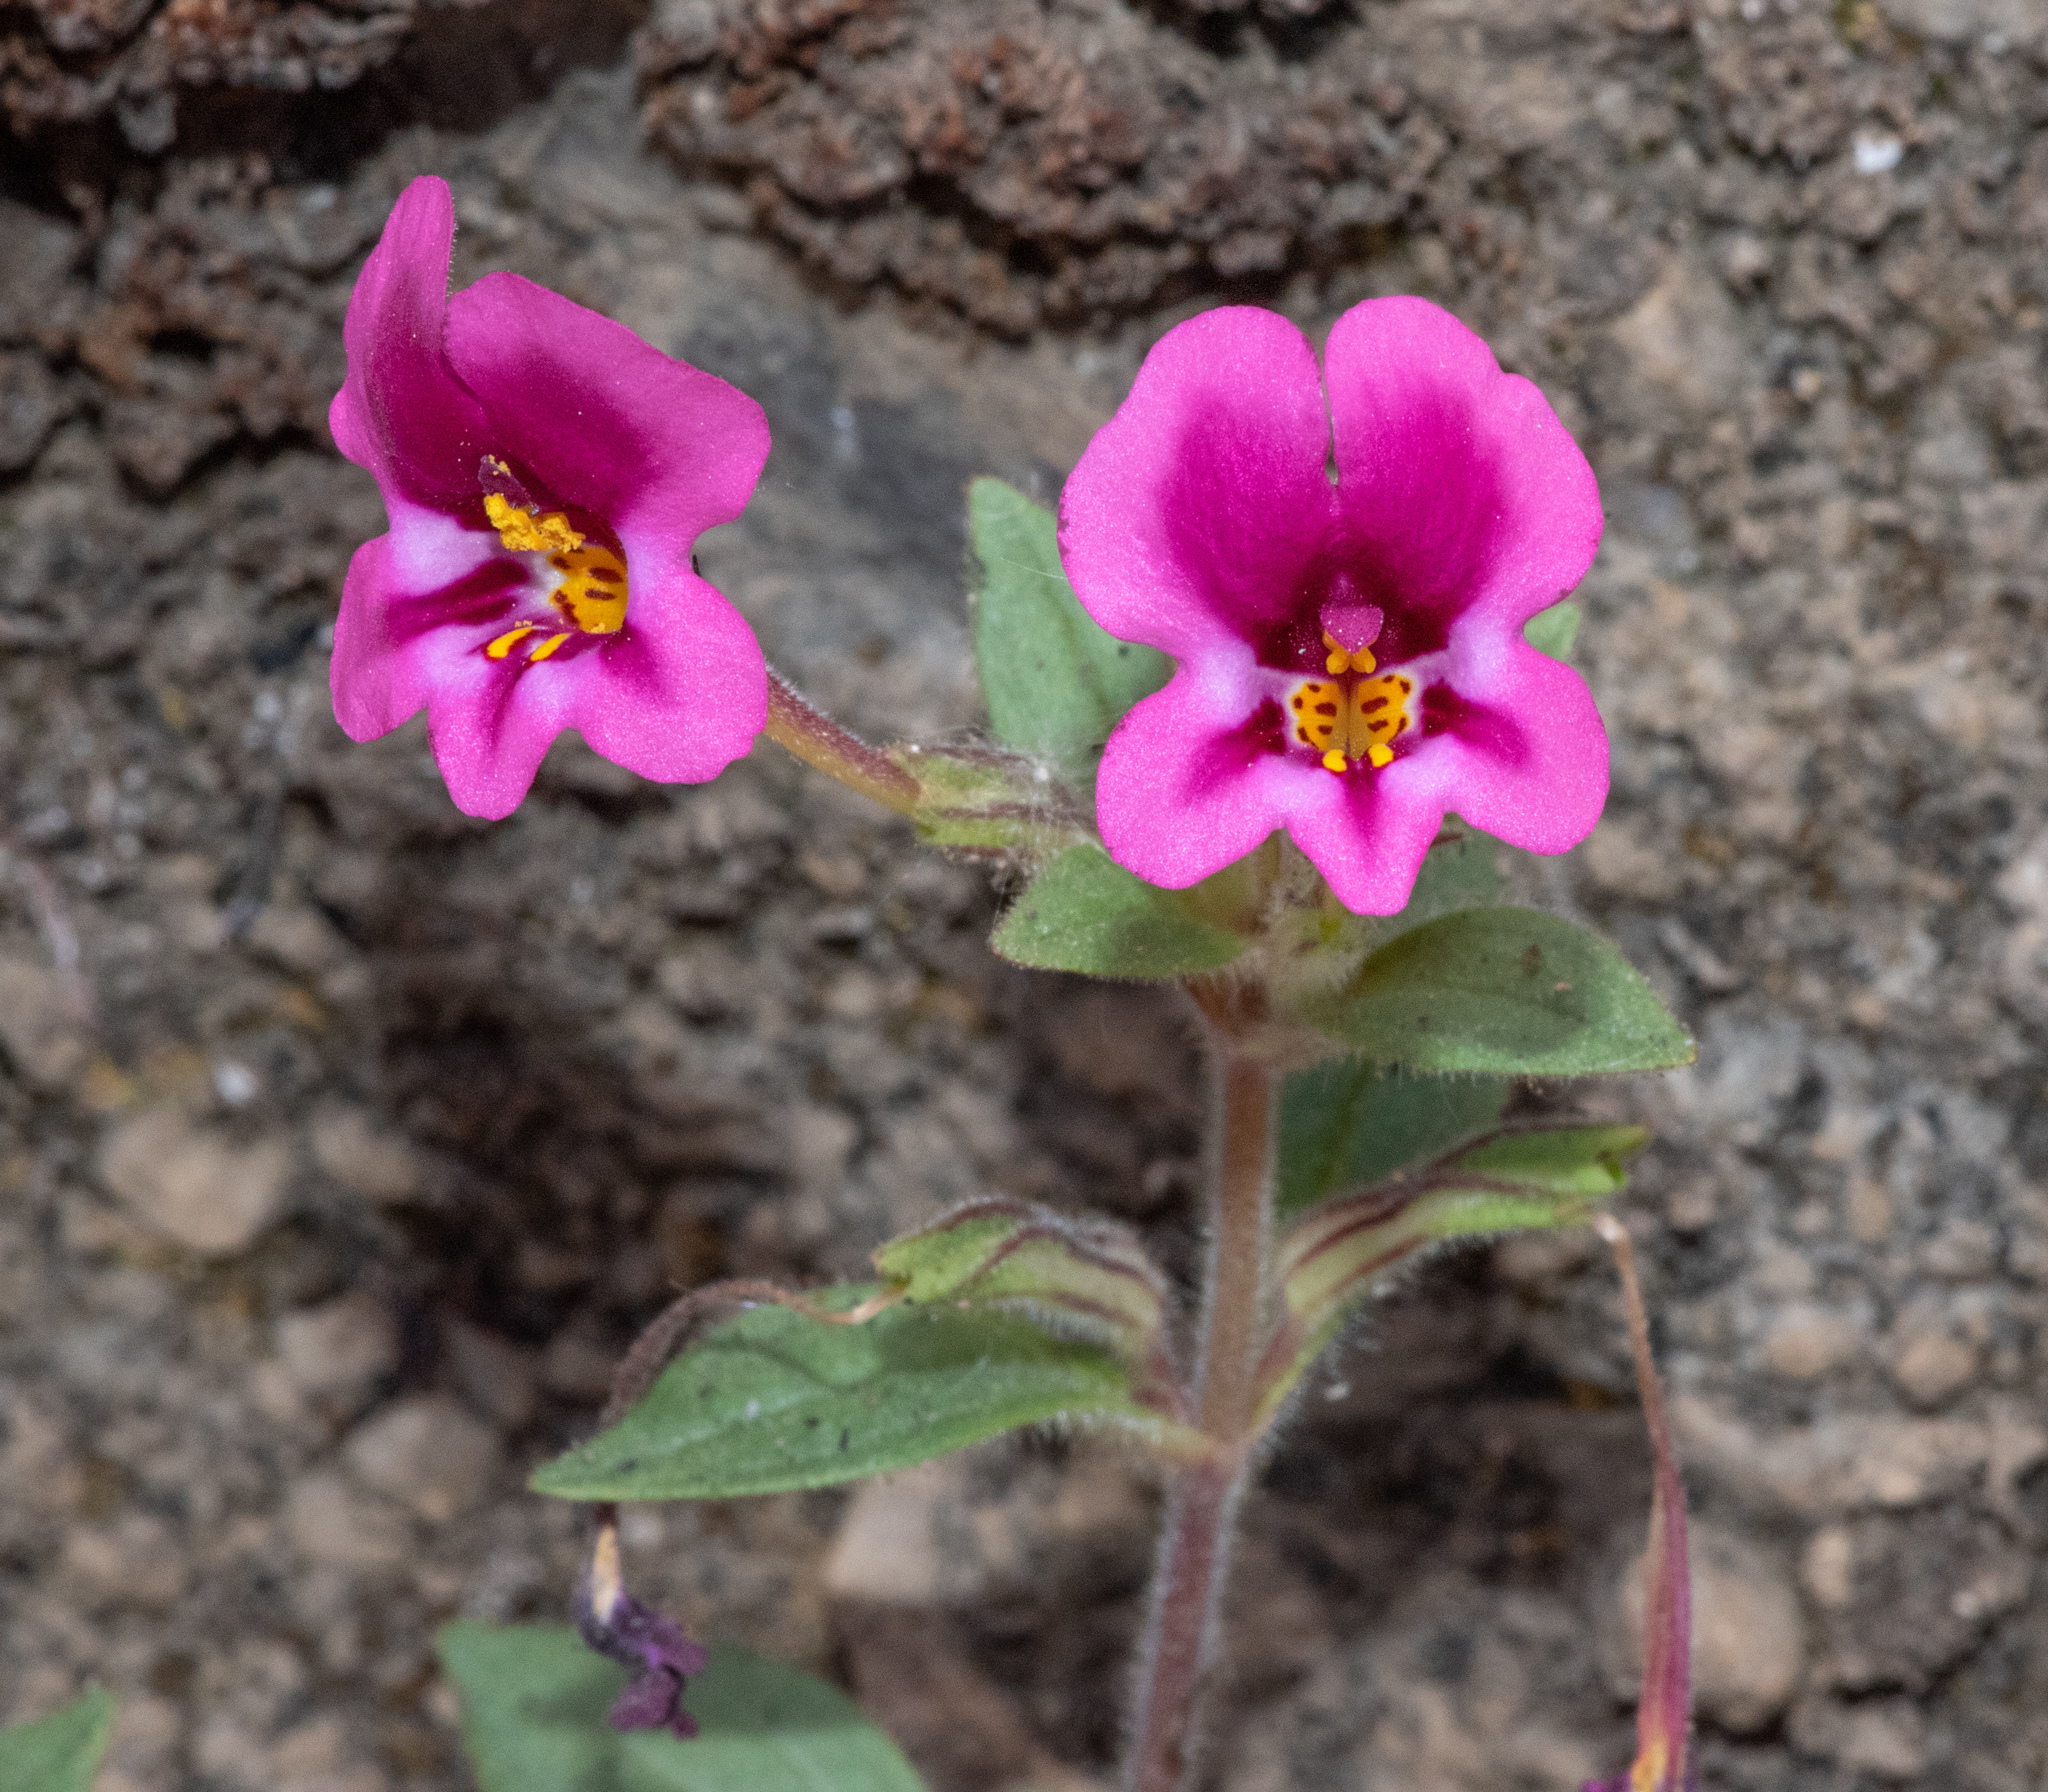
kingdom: Plantae
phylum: Tracheophyta
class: Magnoliopsida
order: Lamiales
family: Phrymaceae
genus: Diplacus
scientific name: Diplacus kelloggii
